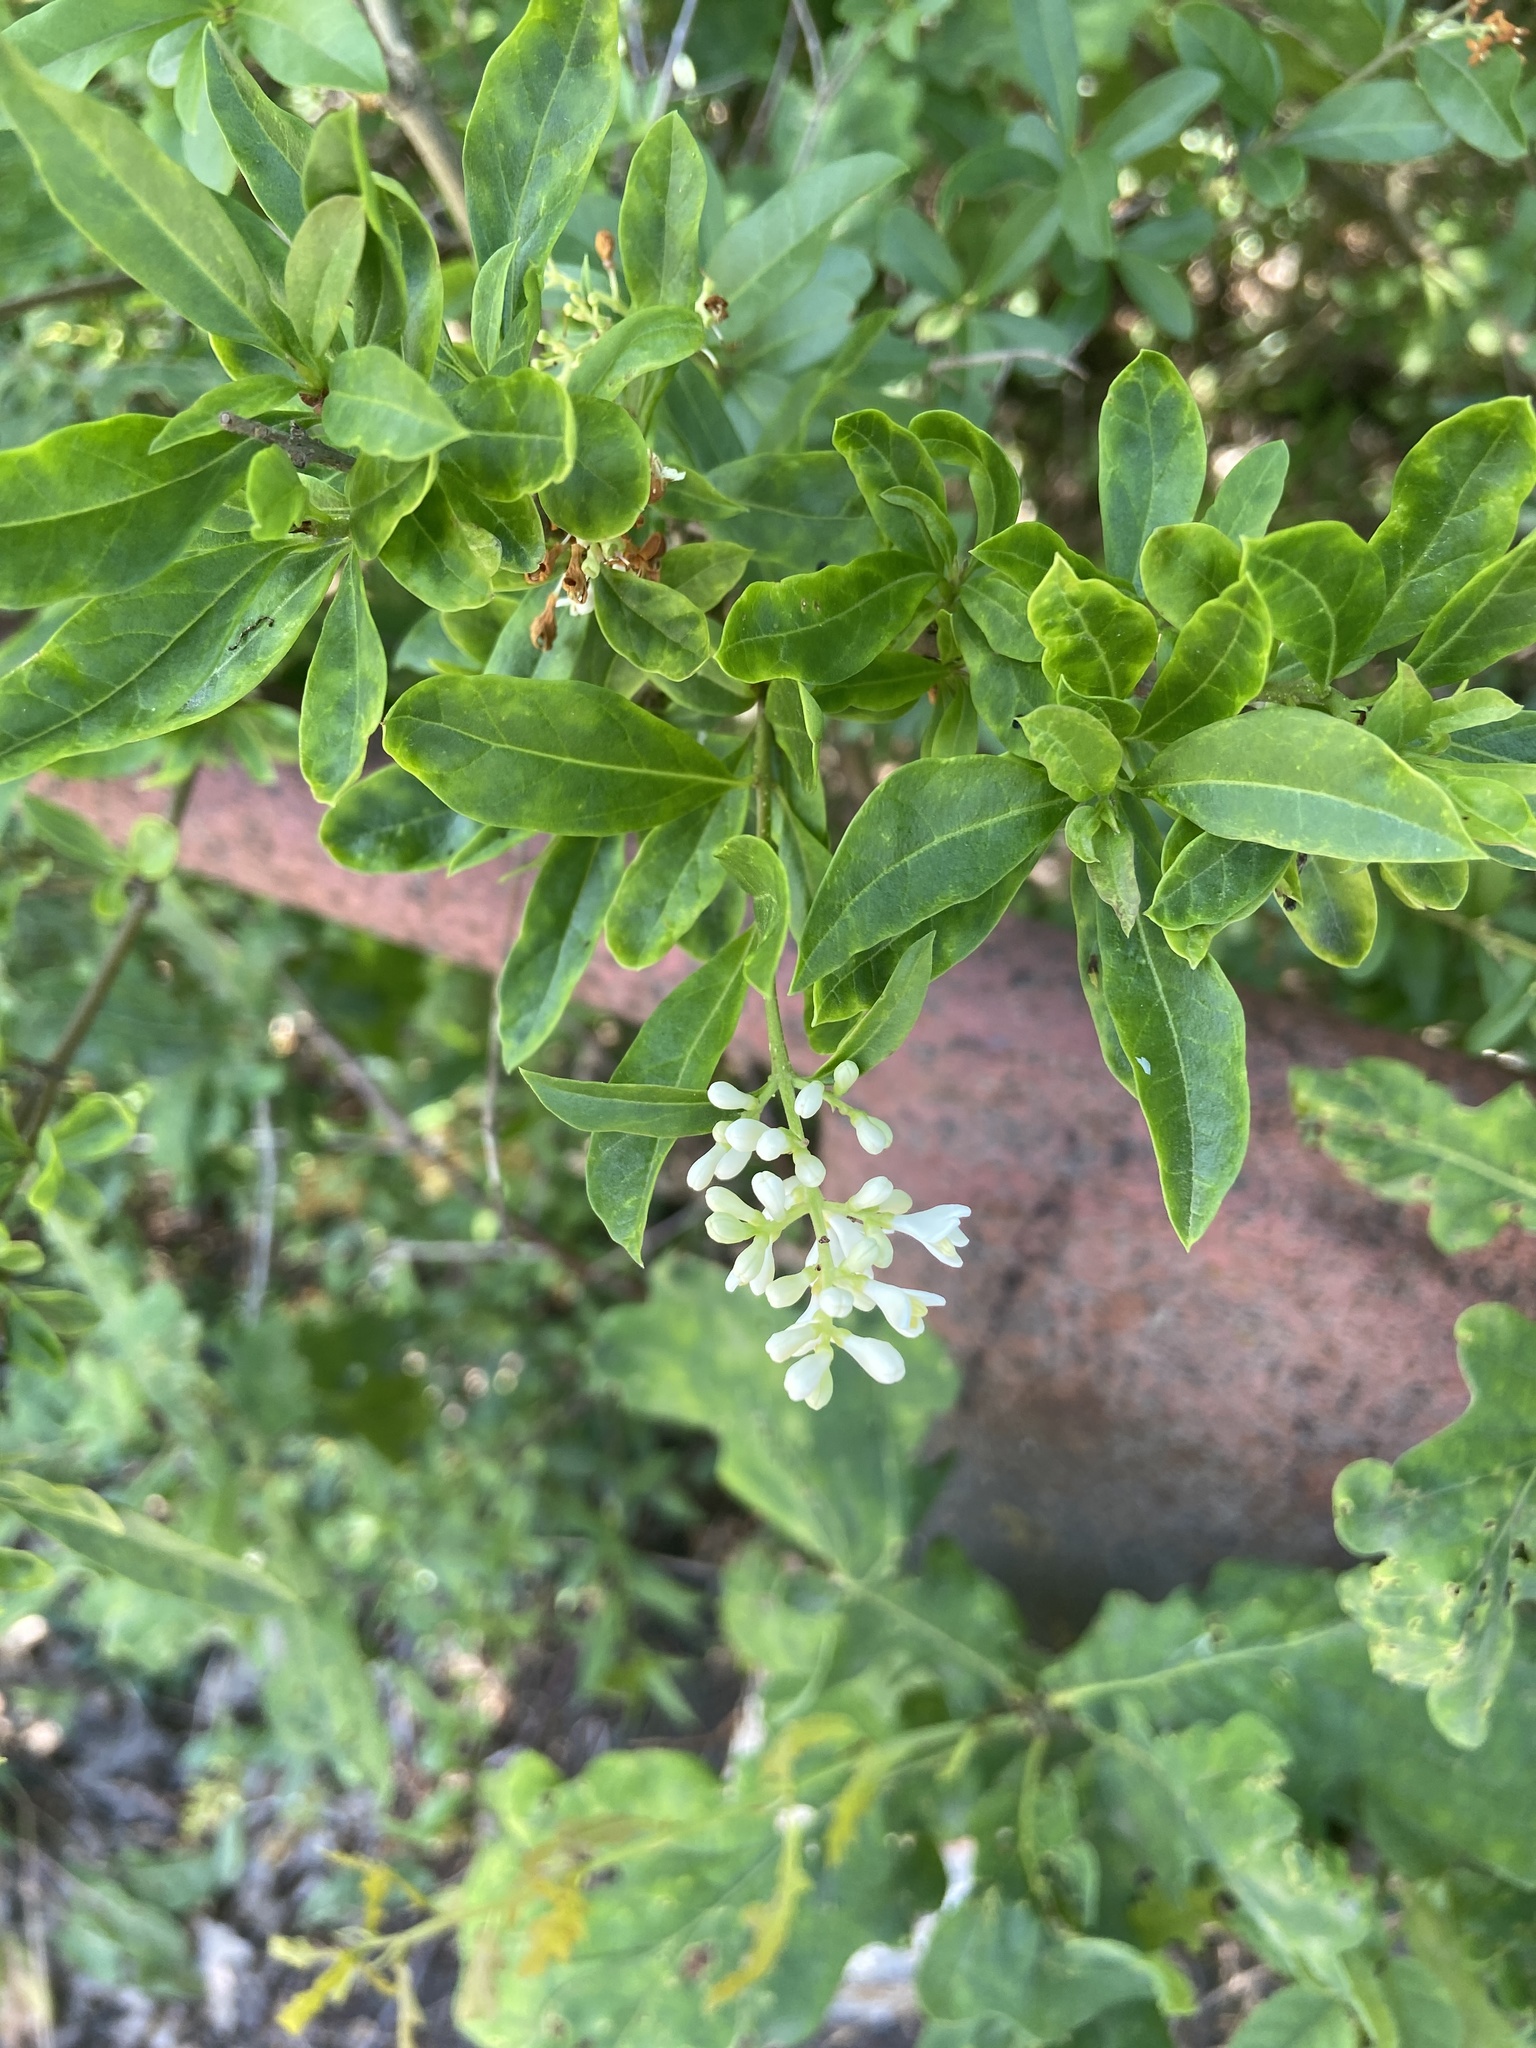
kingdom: Plantae
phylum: Tracheophyta
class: Magnoliopsida
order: Lamiales
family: Oleaceae
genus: Ligustrum
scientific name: Ligustrum vulgare
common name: Wild privet
